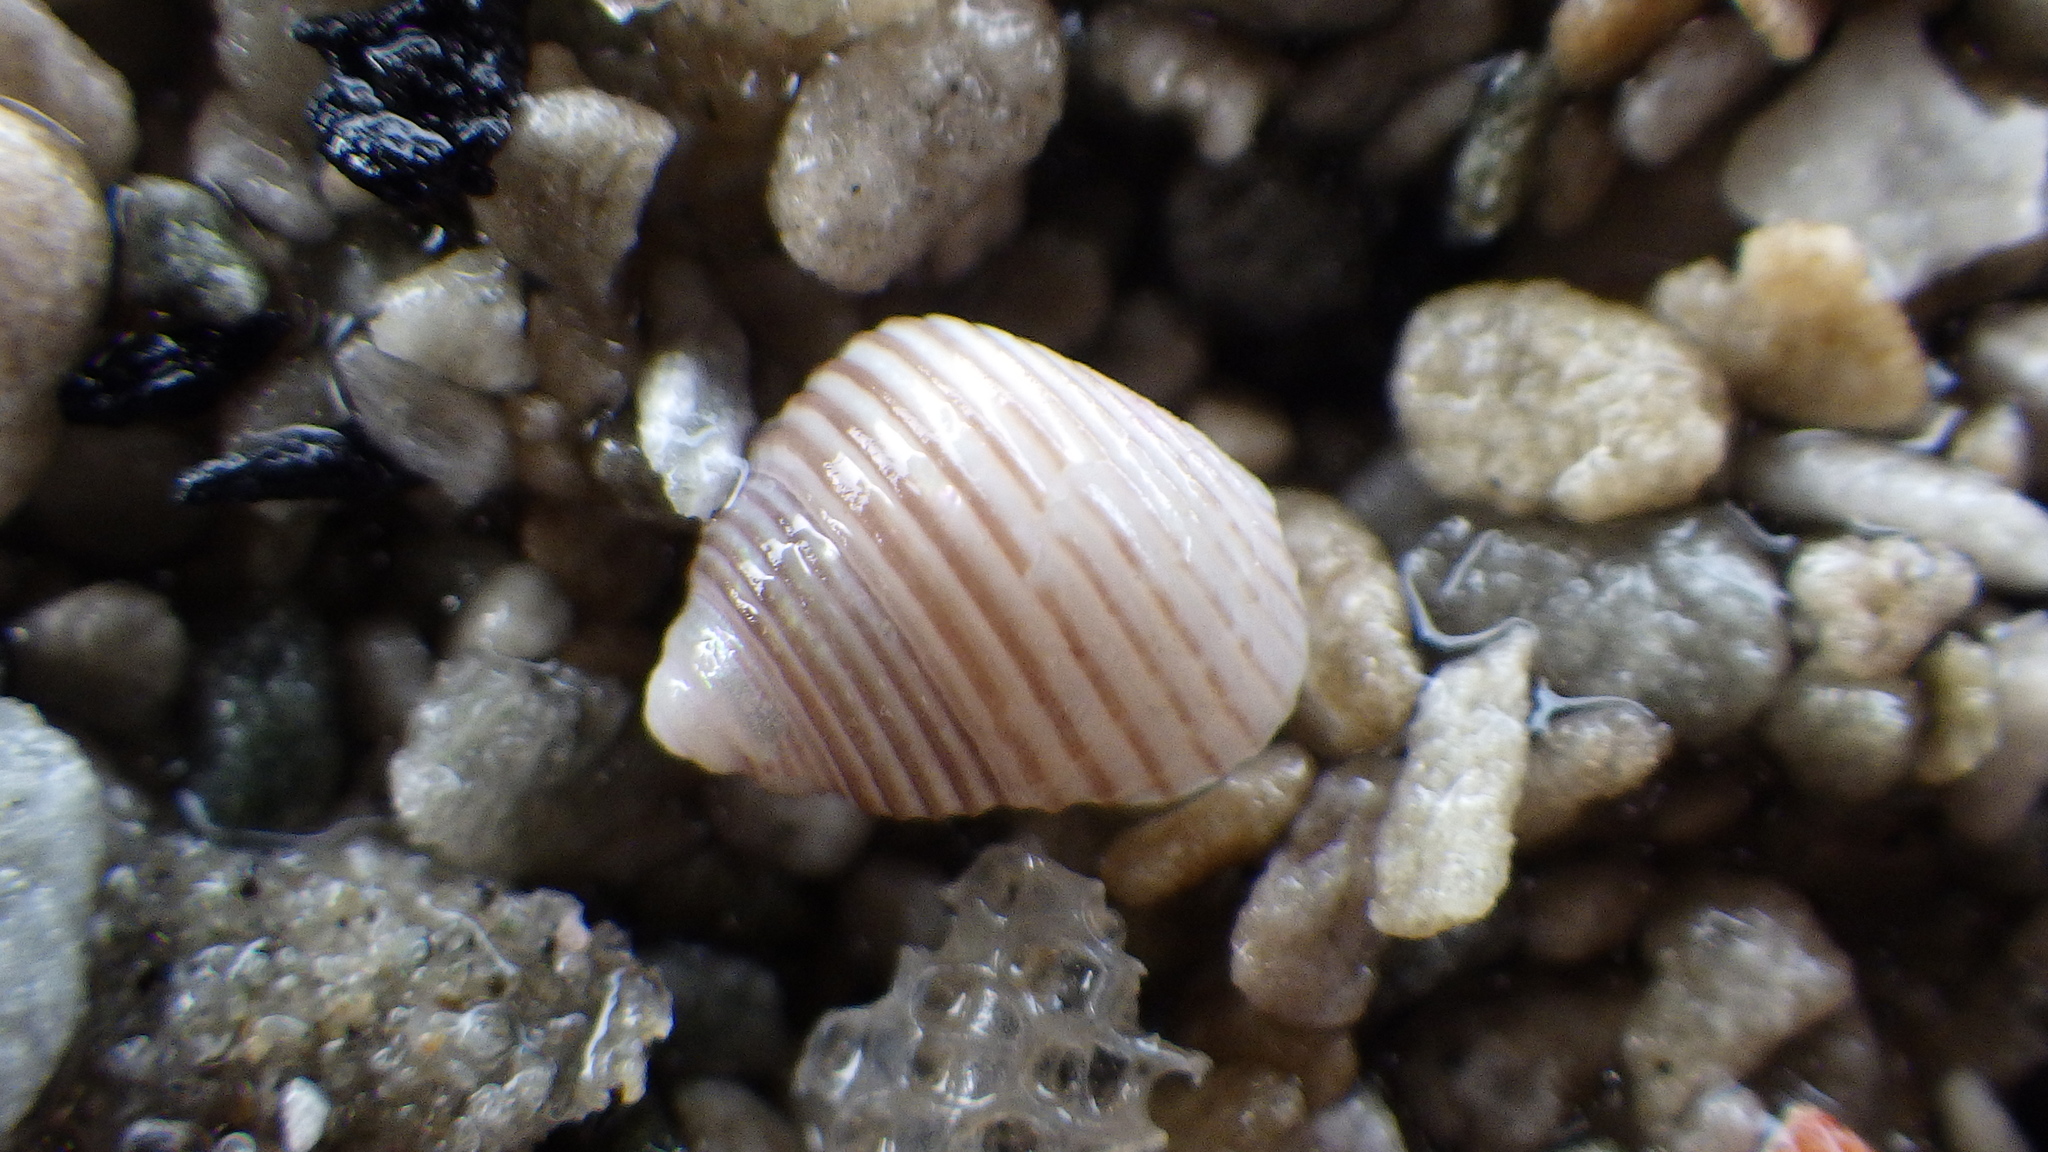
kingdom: Animalia
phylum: Mollusca
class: Gastropoda
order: Trochida
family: Trochidae
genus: Roseaplagis
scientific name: Roseaplagis rufozona
